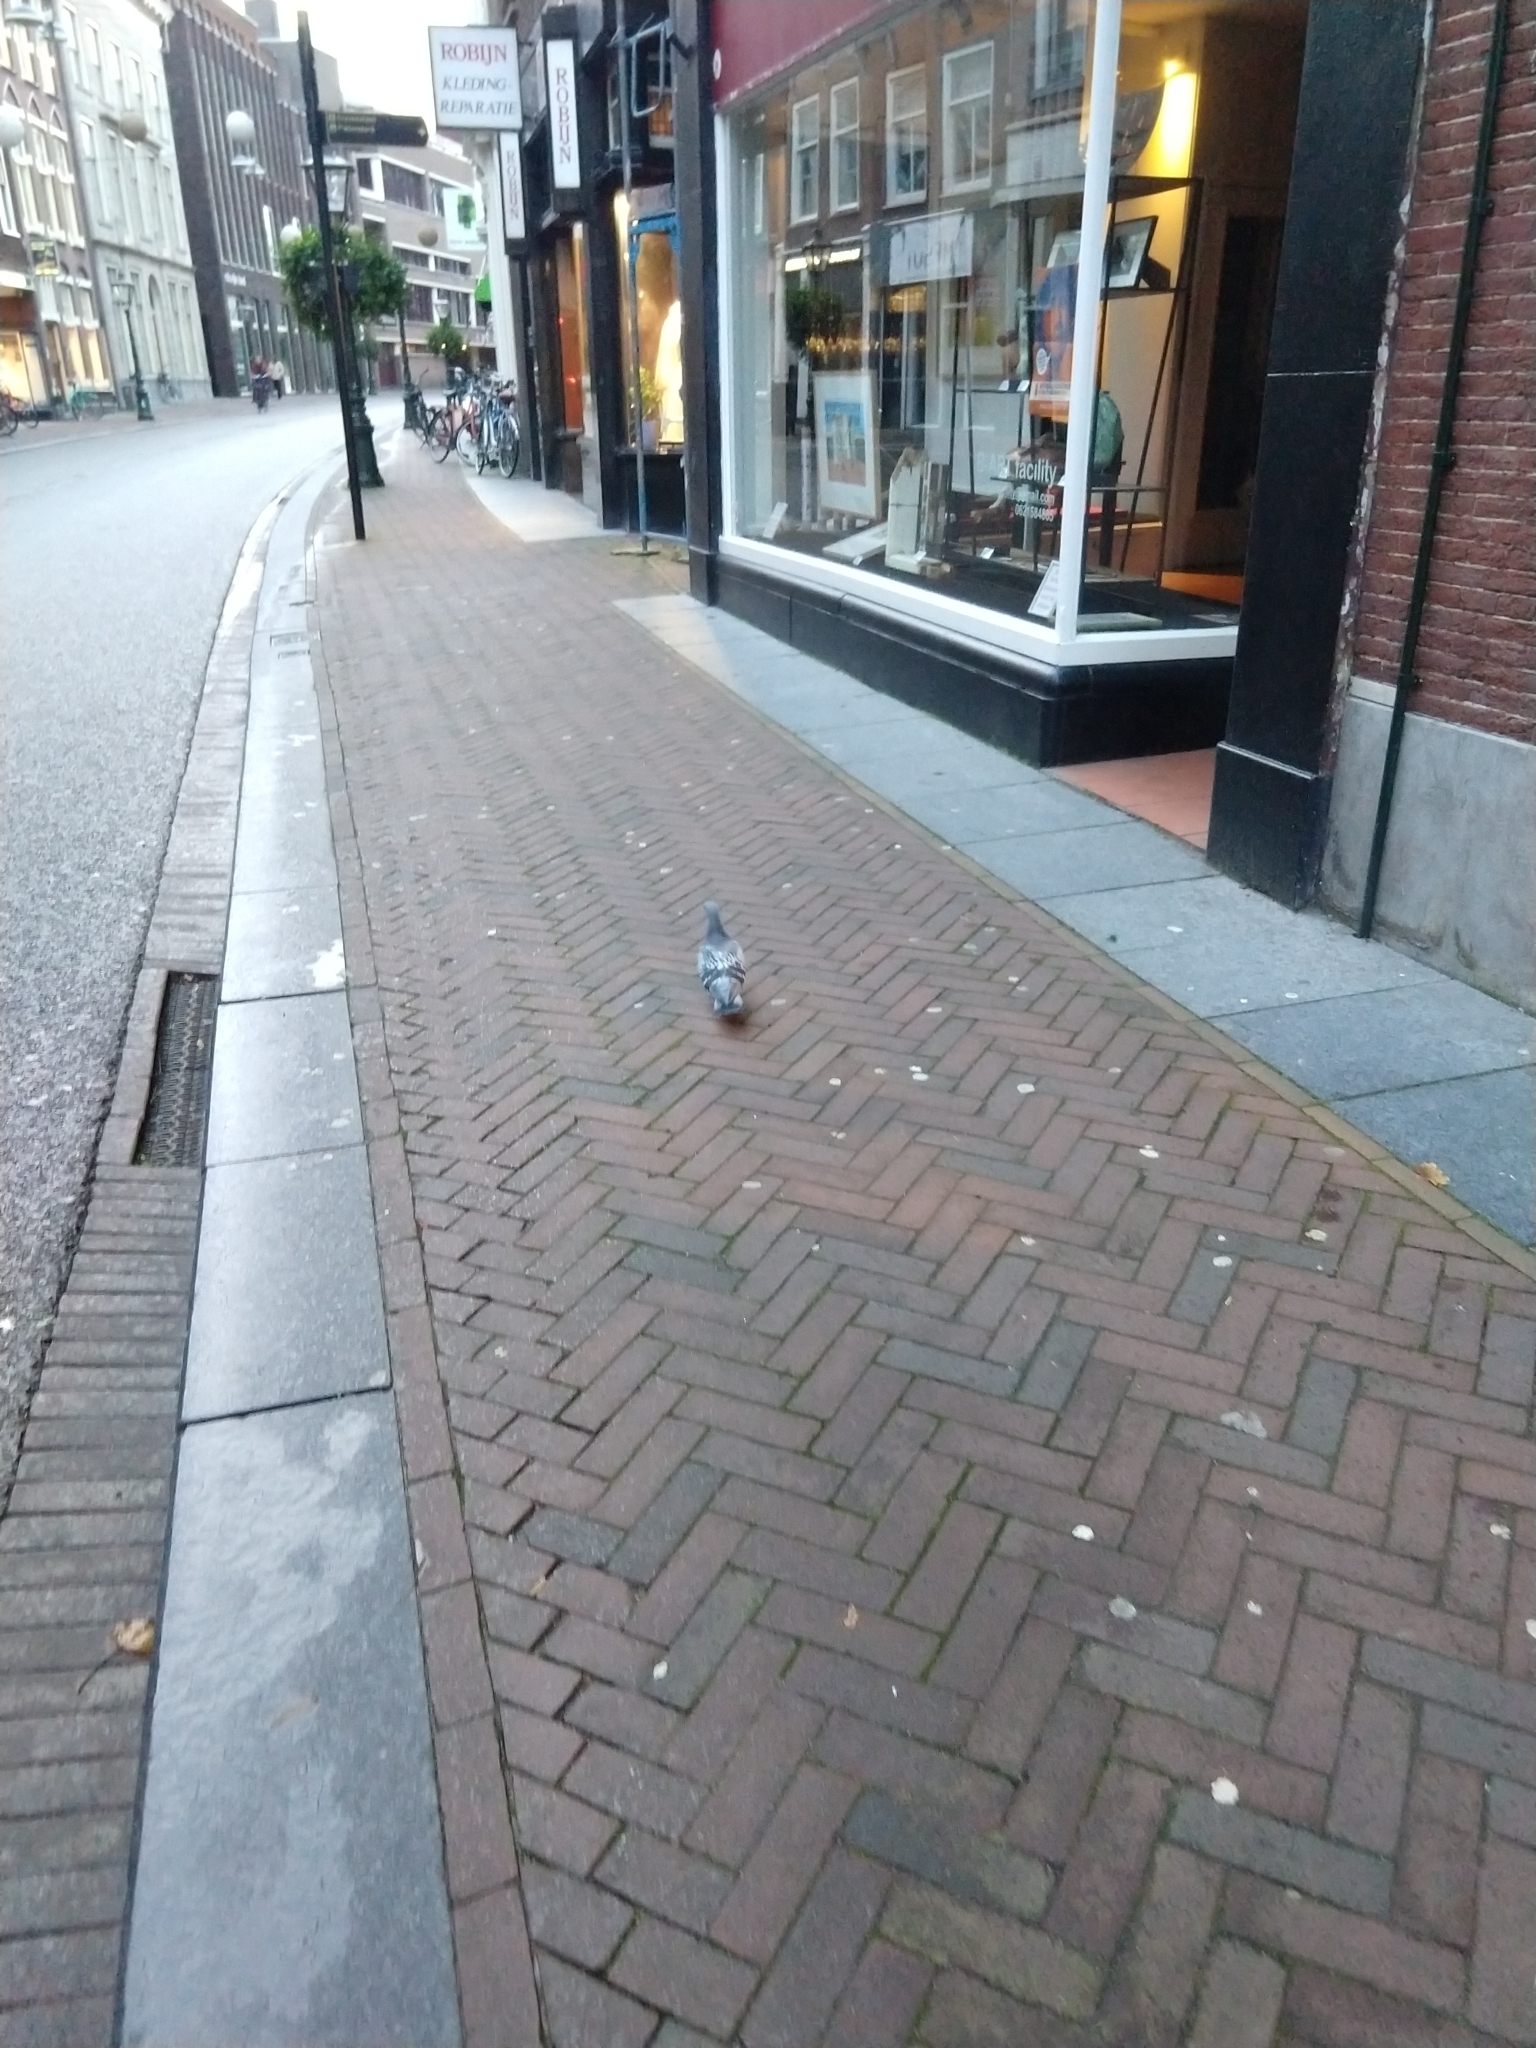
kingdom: Animalia
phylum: Chordata
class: Aves
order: Columbiformes
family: Columbidae
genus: Columba
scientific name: Columba livia
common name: Rock pigeon
